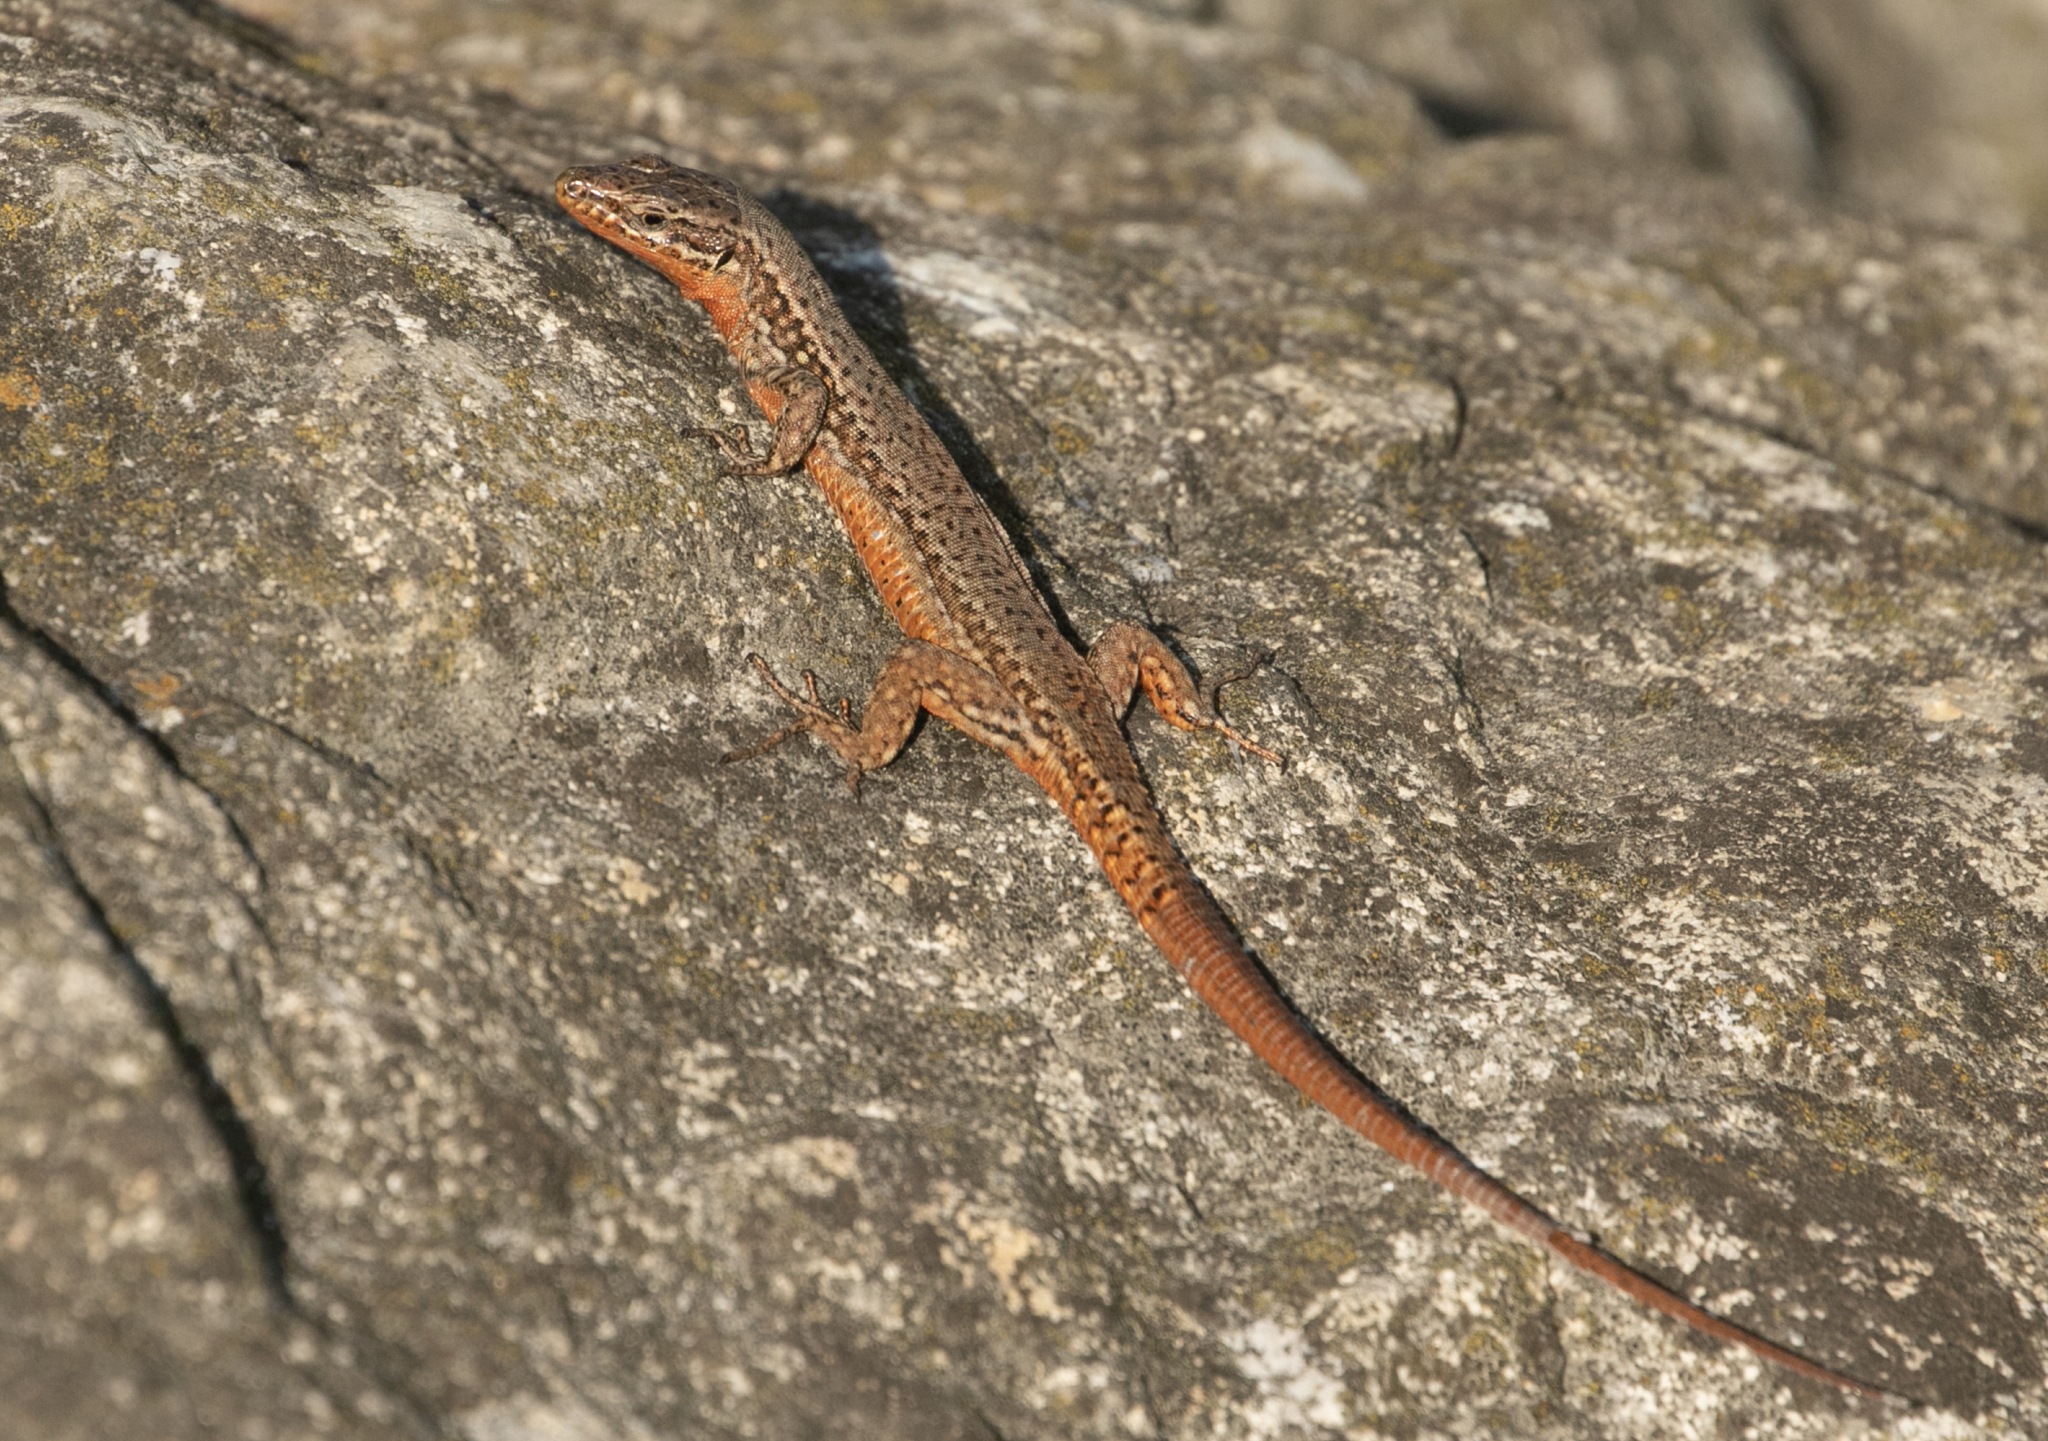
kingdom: Animalia
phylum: Chordata
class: Squamata
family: Lacertidae
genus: Podarcis
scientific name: Podarcis muralis
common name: Common wall lizard
